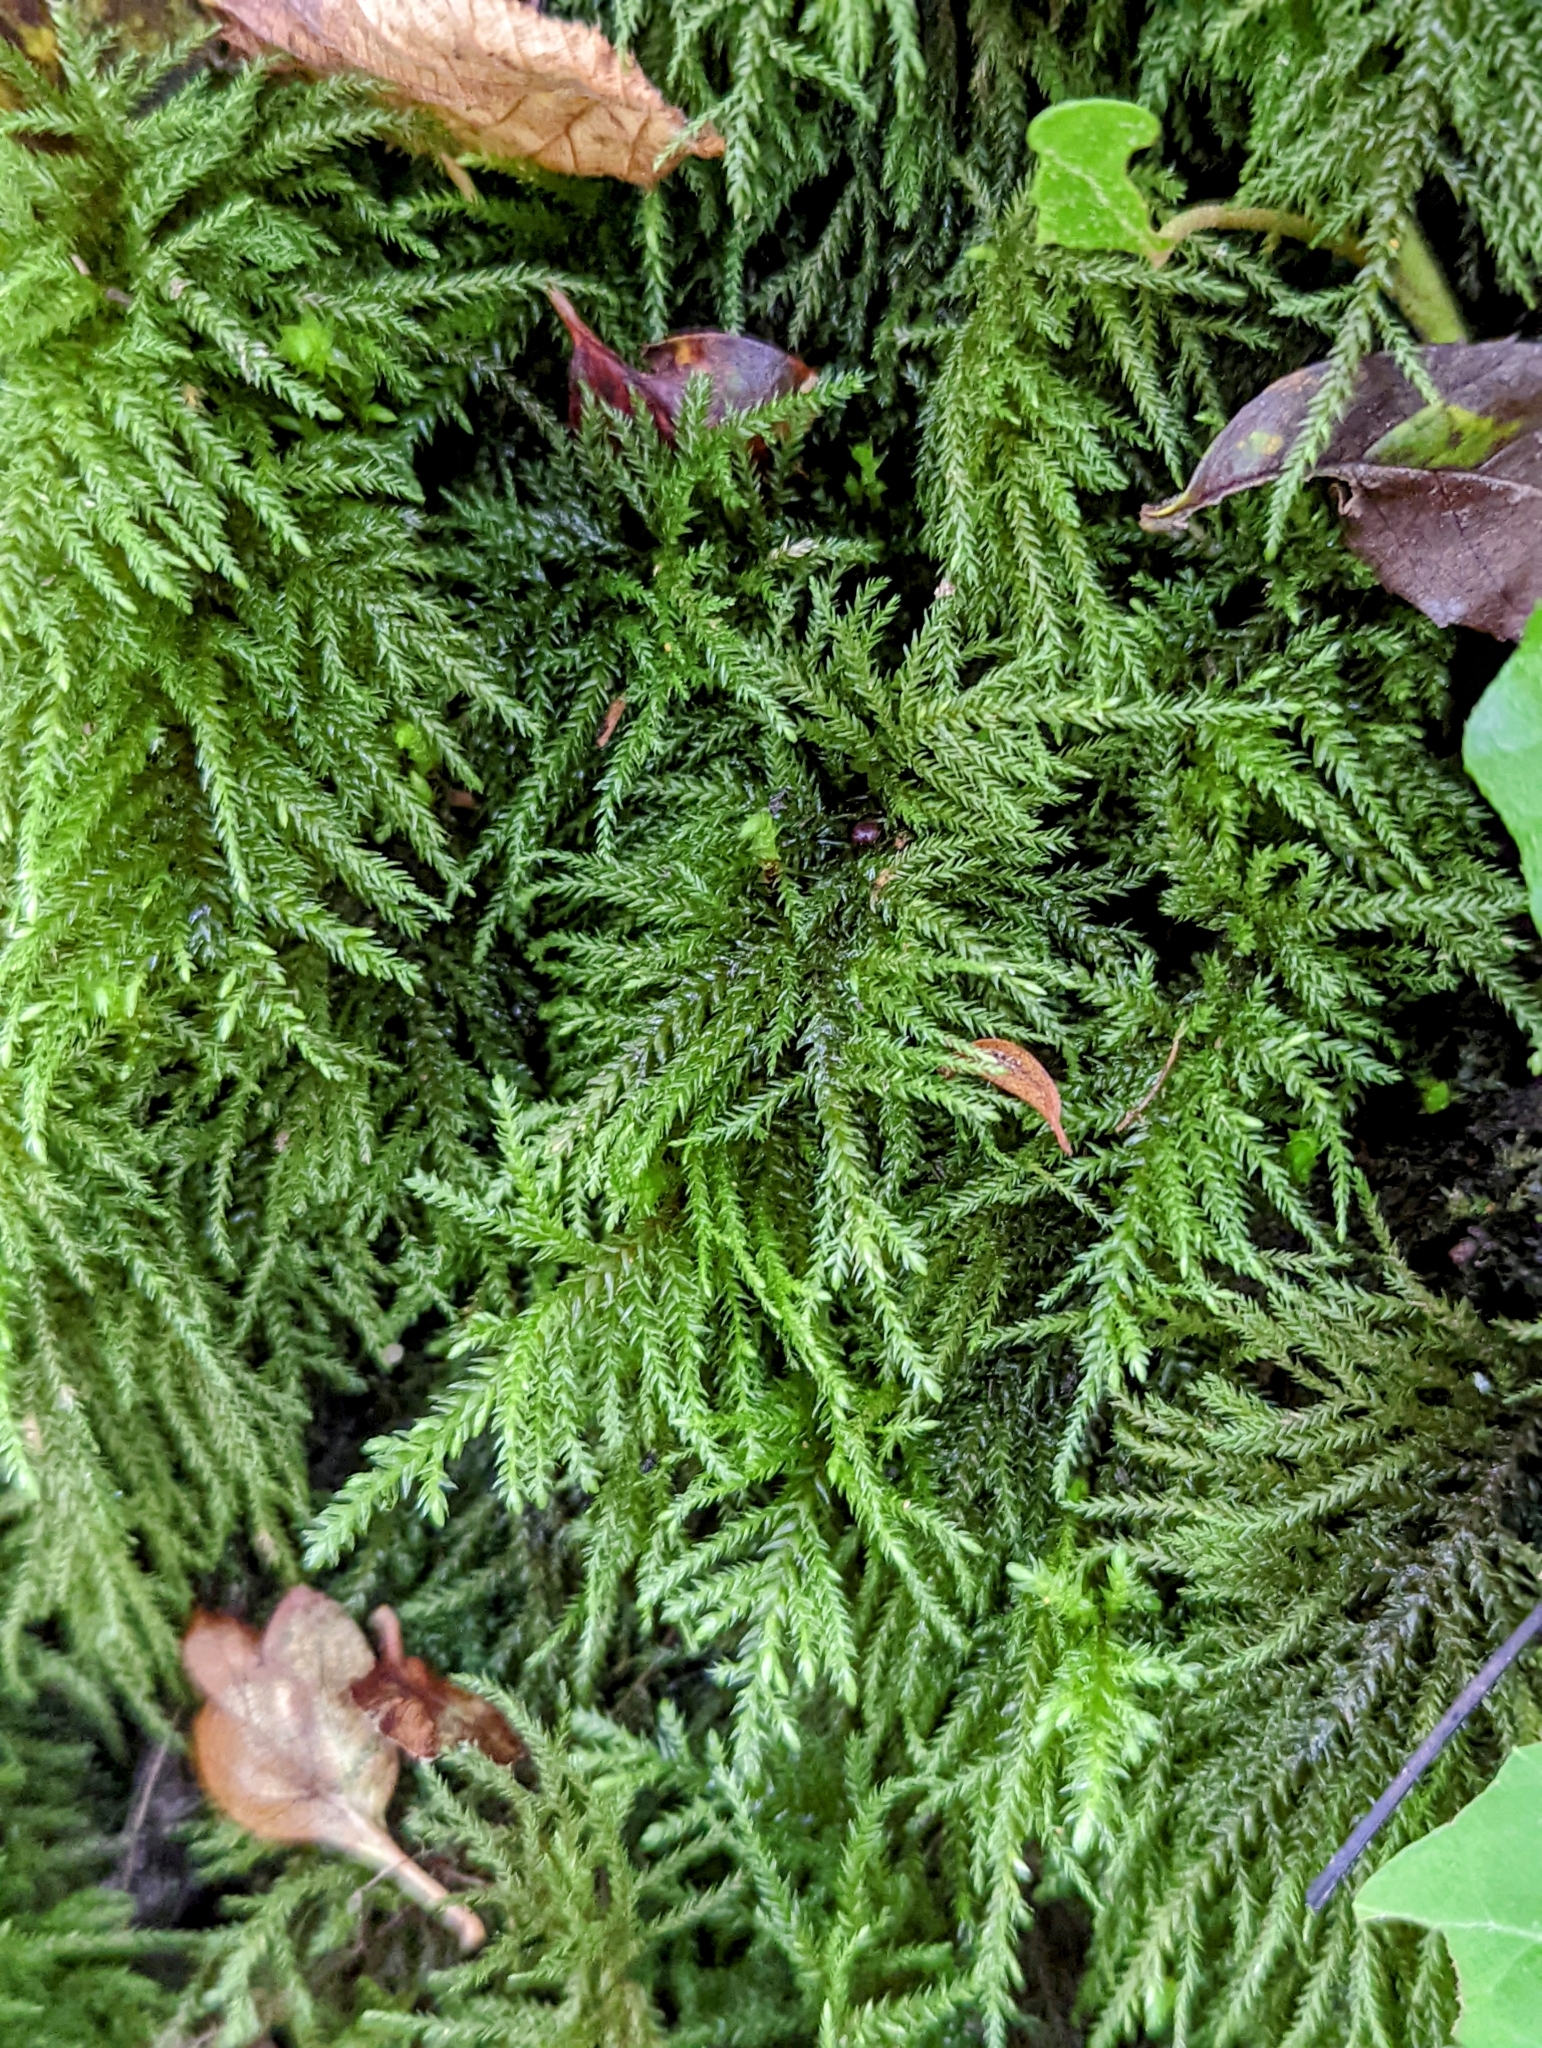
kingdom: Plantae
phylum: Bryophyta
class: Bryopsida
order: Hypnales
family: Neckeraceae
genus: Thamnobryum
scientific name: Thamnobryum alopecurum
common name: Fox-tail feather-moss
